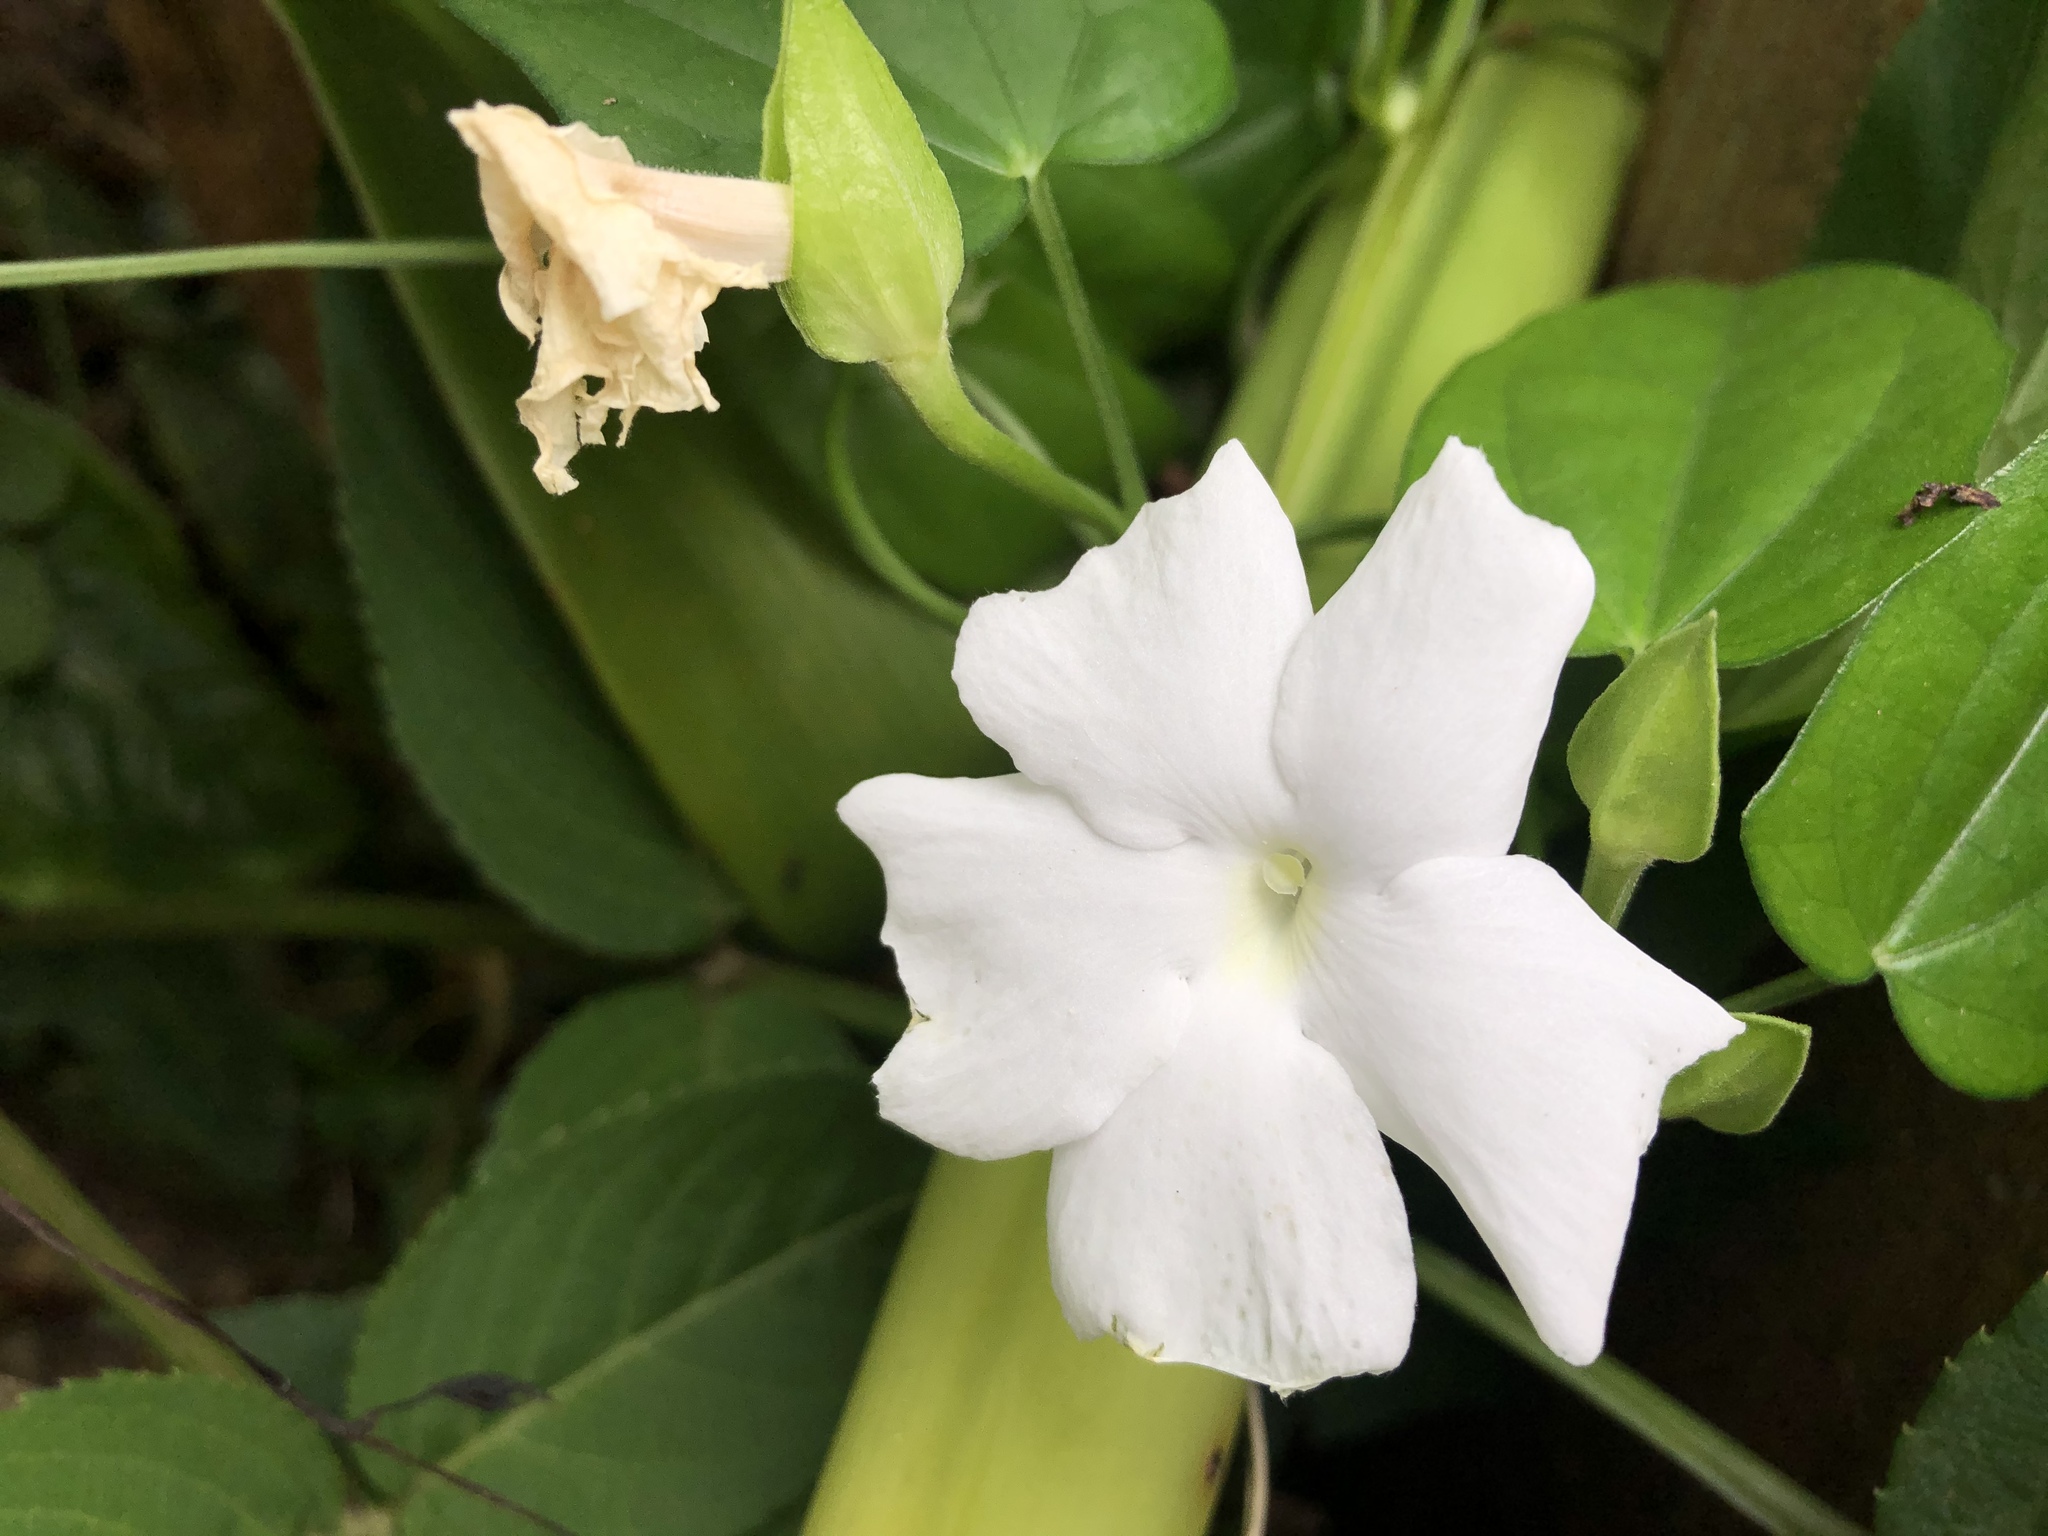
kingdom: Plantae
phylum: Tracheophyta
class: Magnoliopsida
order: Lamiales
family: Acanthaceae
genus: Thunbergia
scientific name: Thunbergia fragrans
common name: Whitelady
